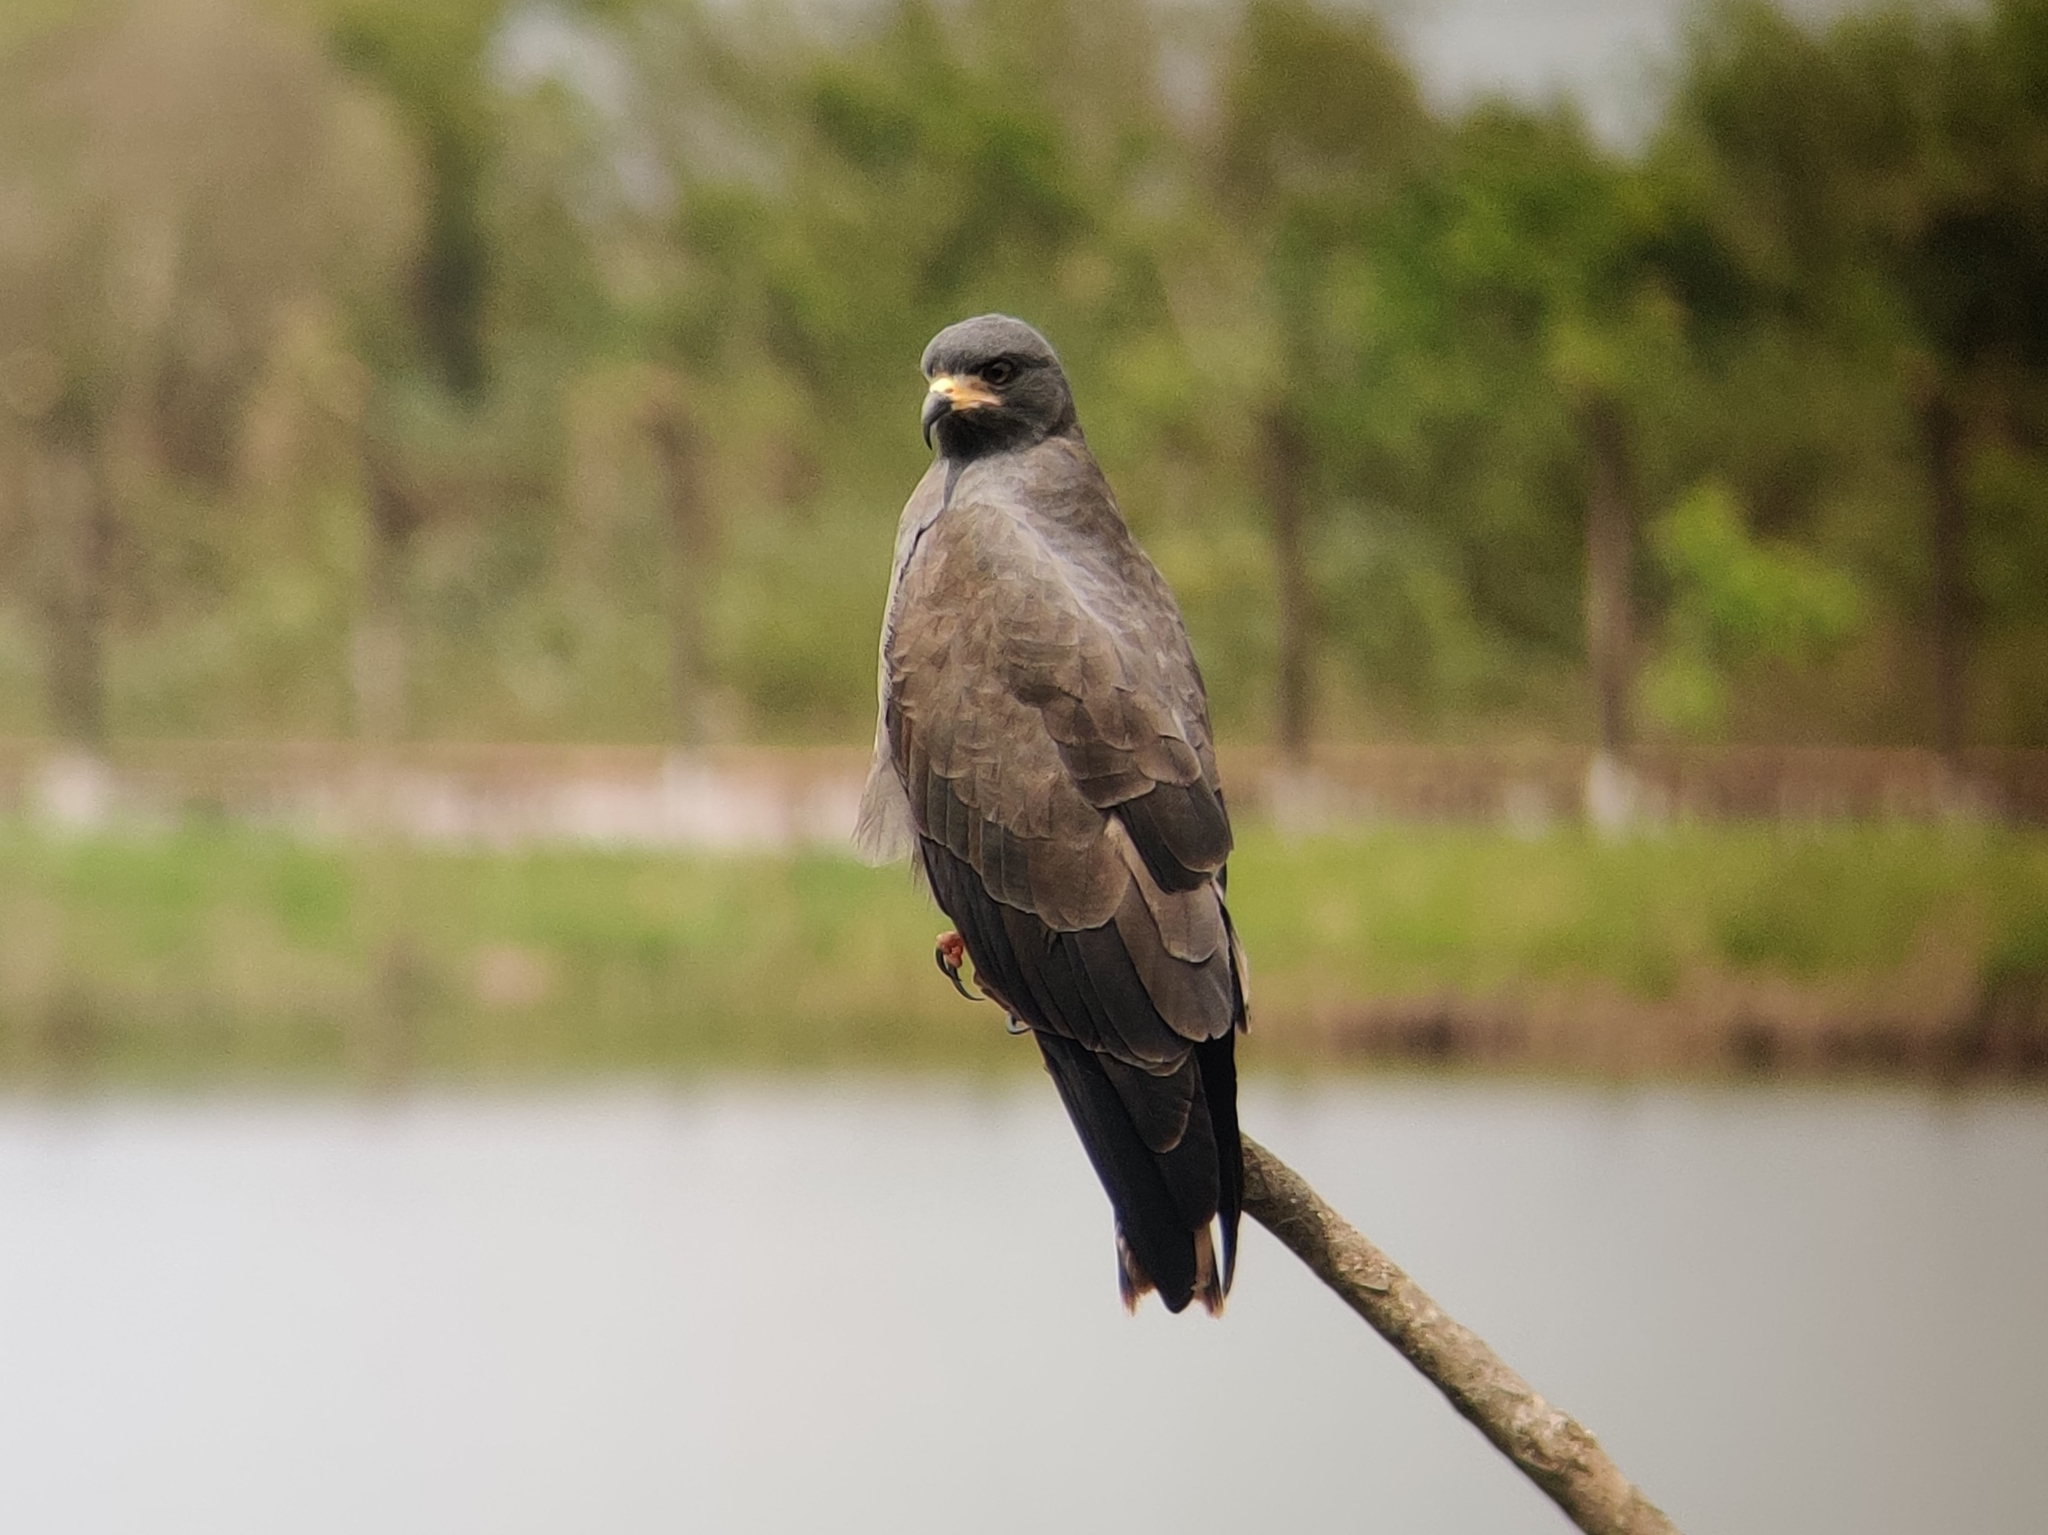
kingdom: Animalia
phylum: Chordata
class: Aves
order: Accipitriformes
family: Accipitridae
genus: Rostrhamus
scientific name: Rostrhamus sociabilis
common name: Snail kite
